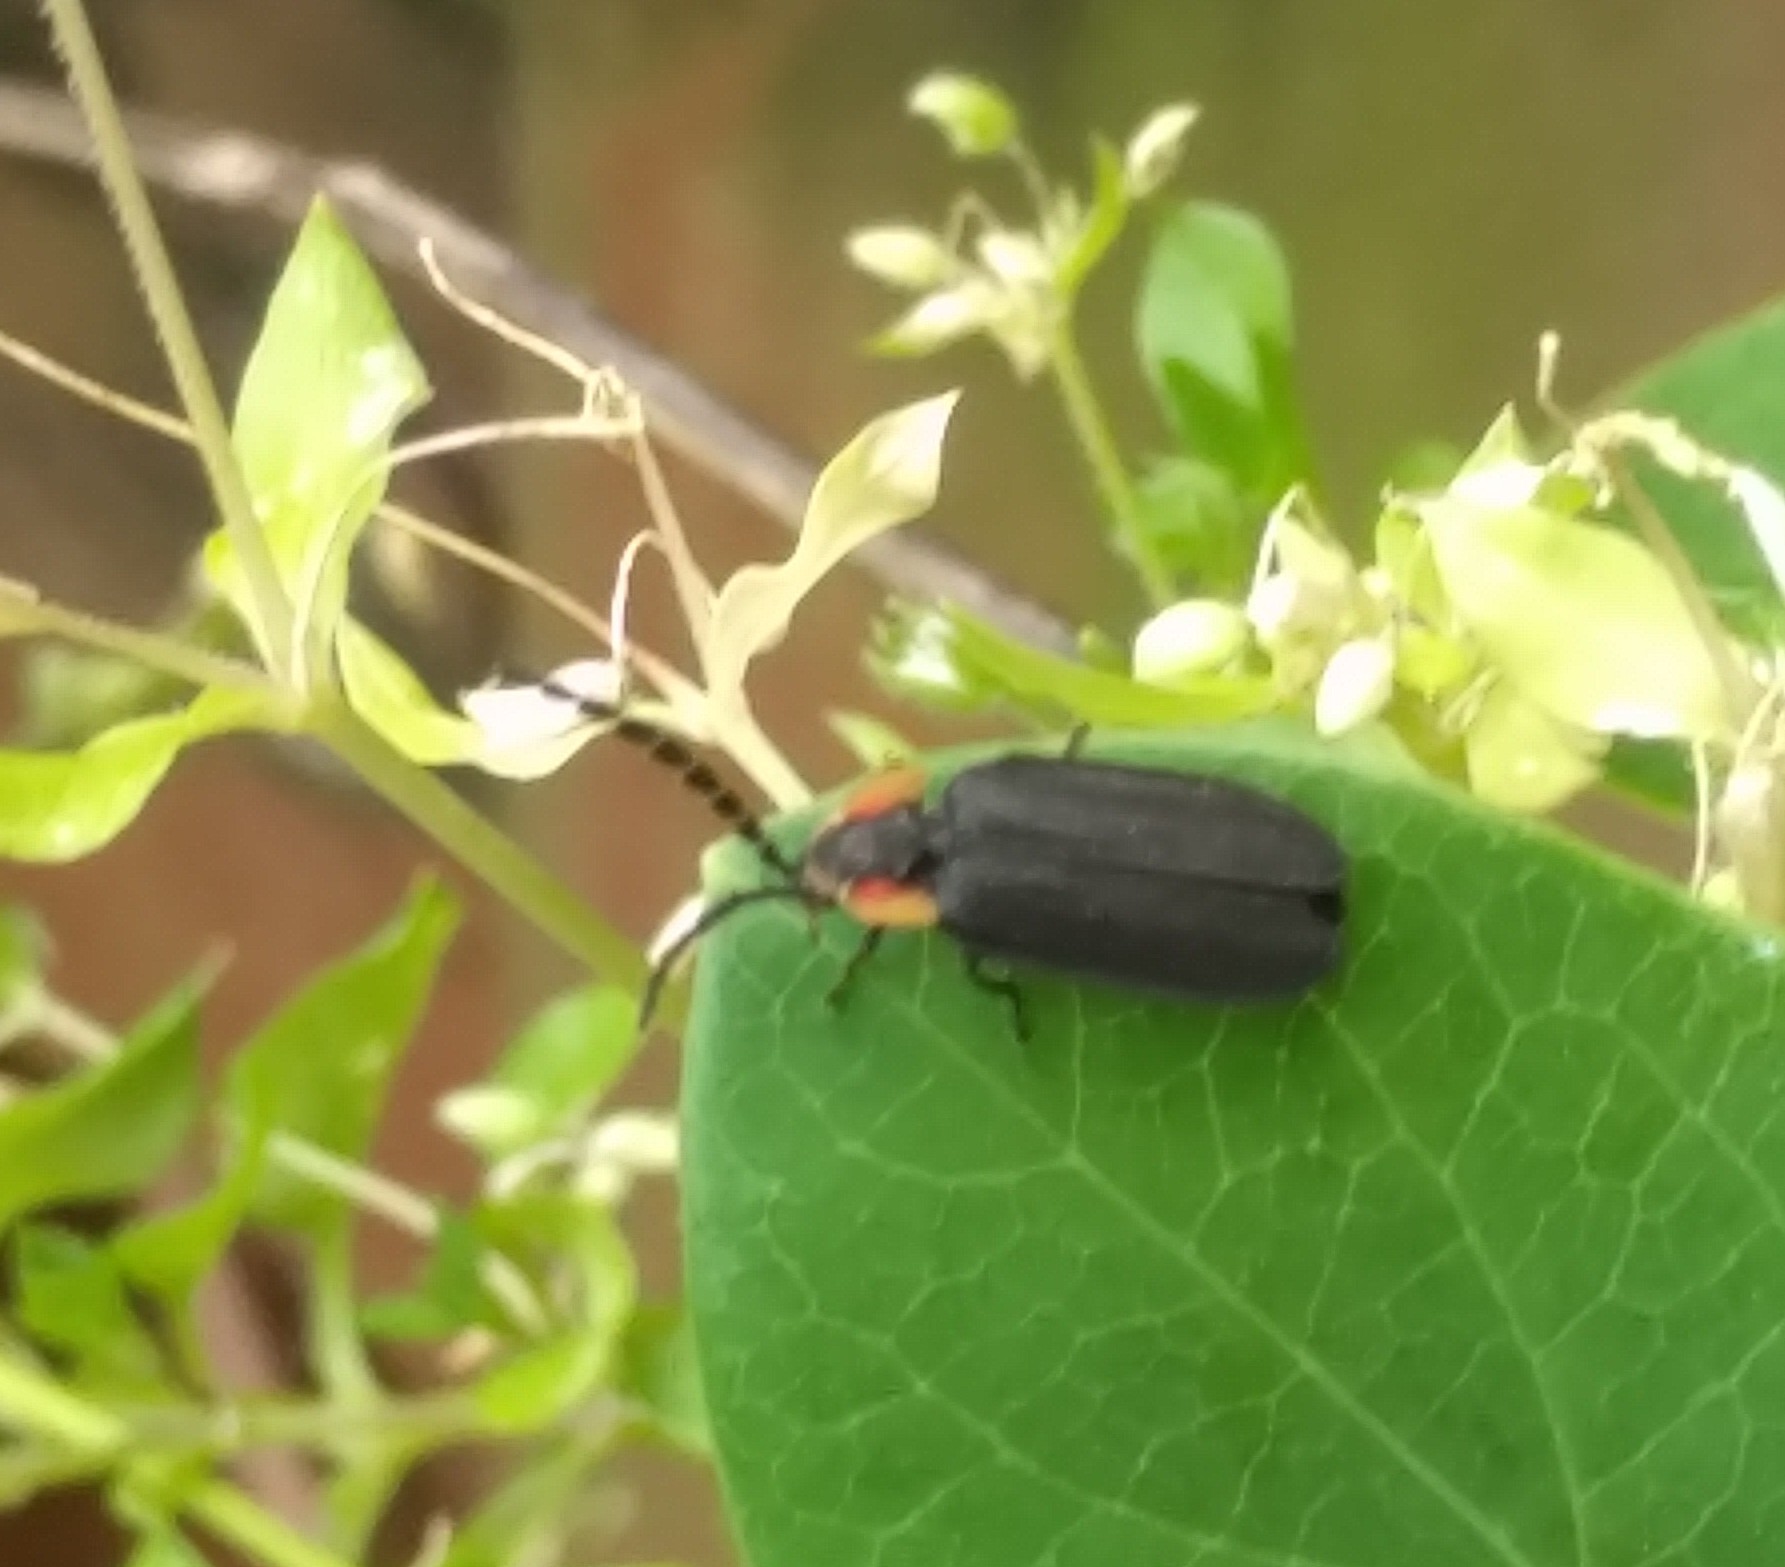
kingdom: Animalia
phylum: Arthropoda
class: Insecta
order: Coleoptera
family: Lampyridae
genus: Lucidota
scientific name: Lucidota atra
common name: Black firefly
